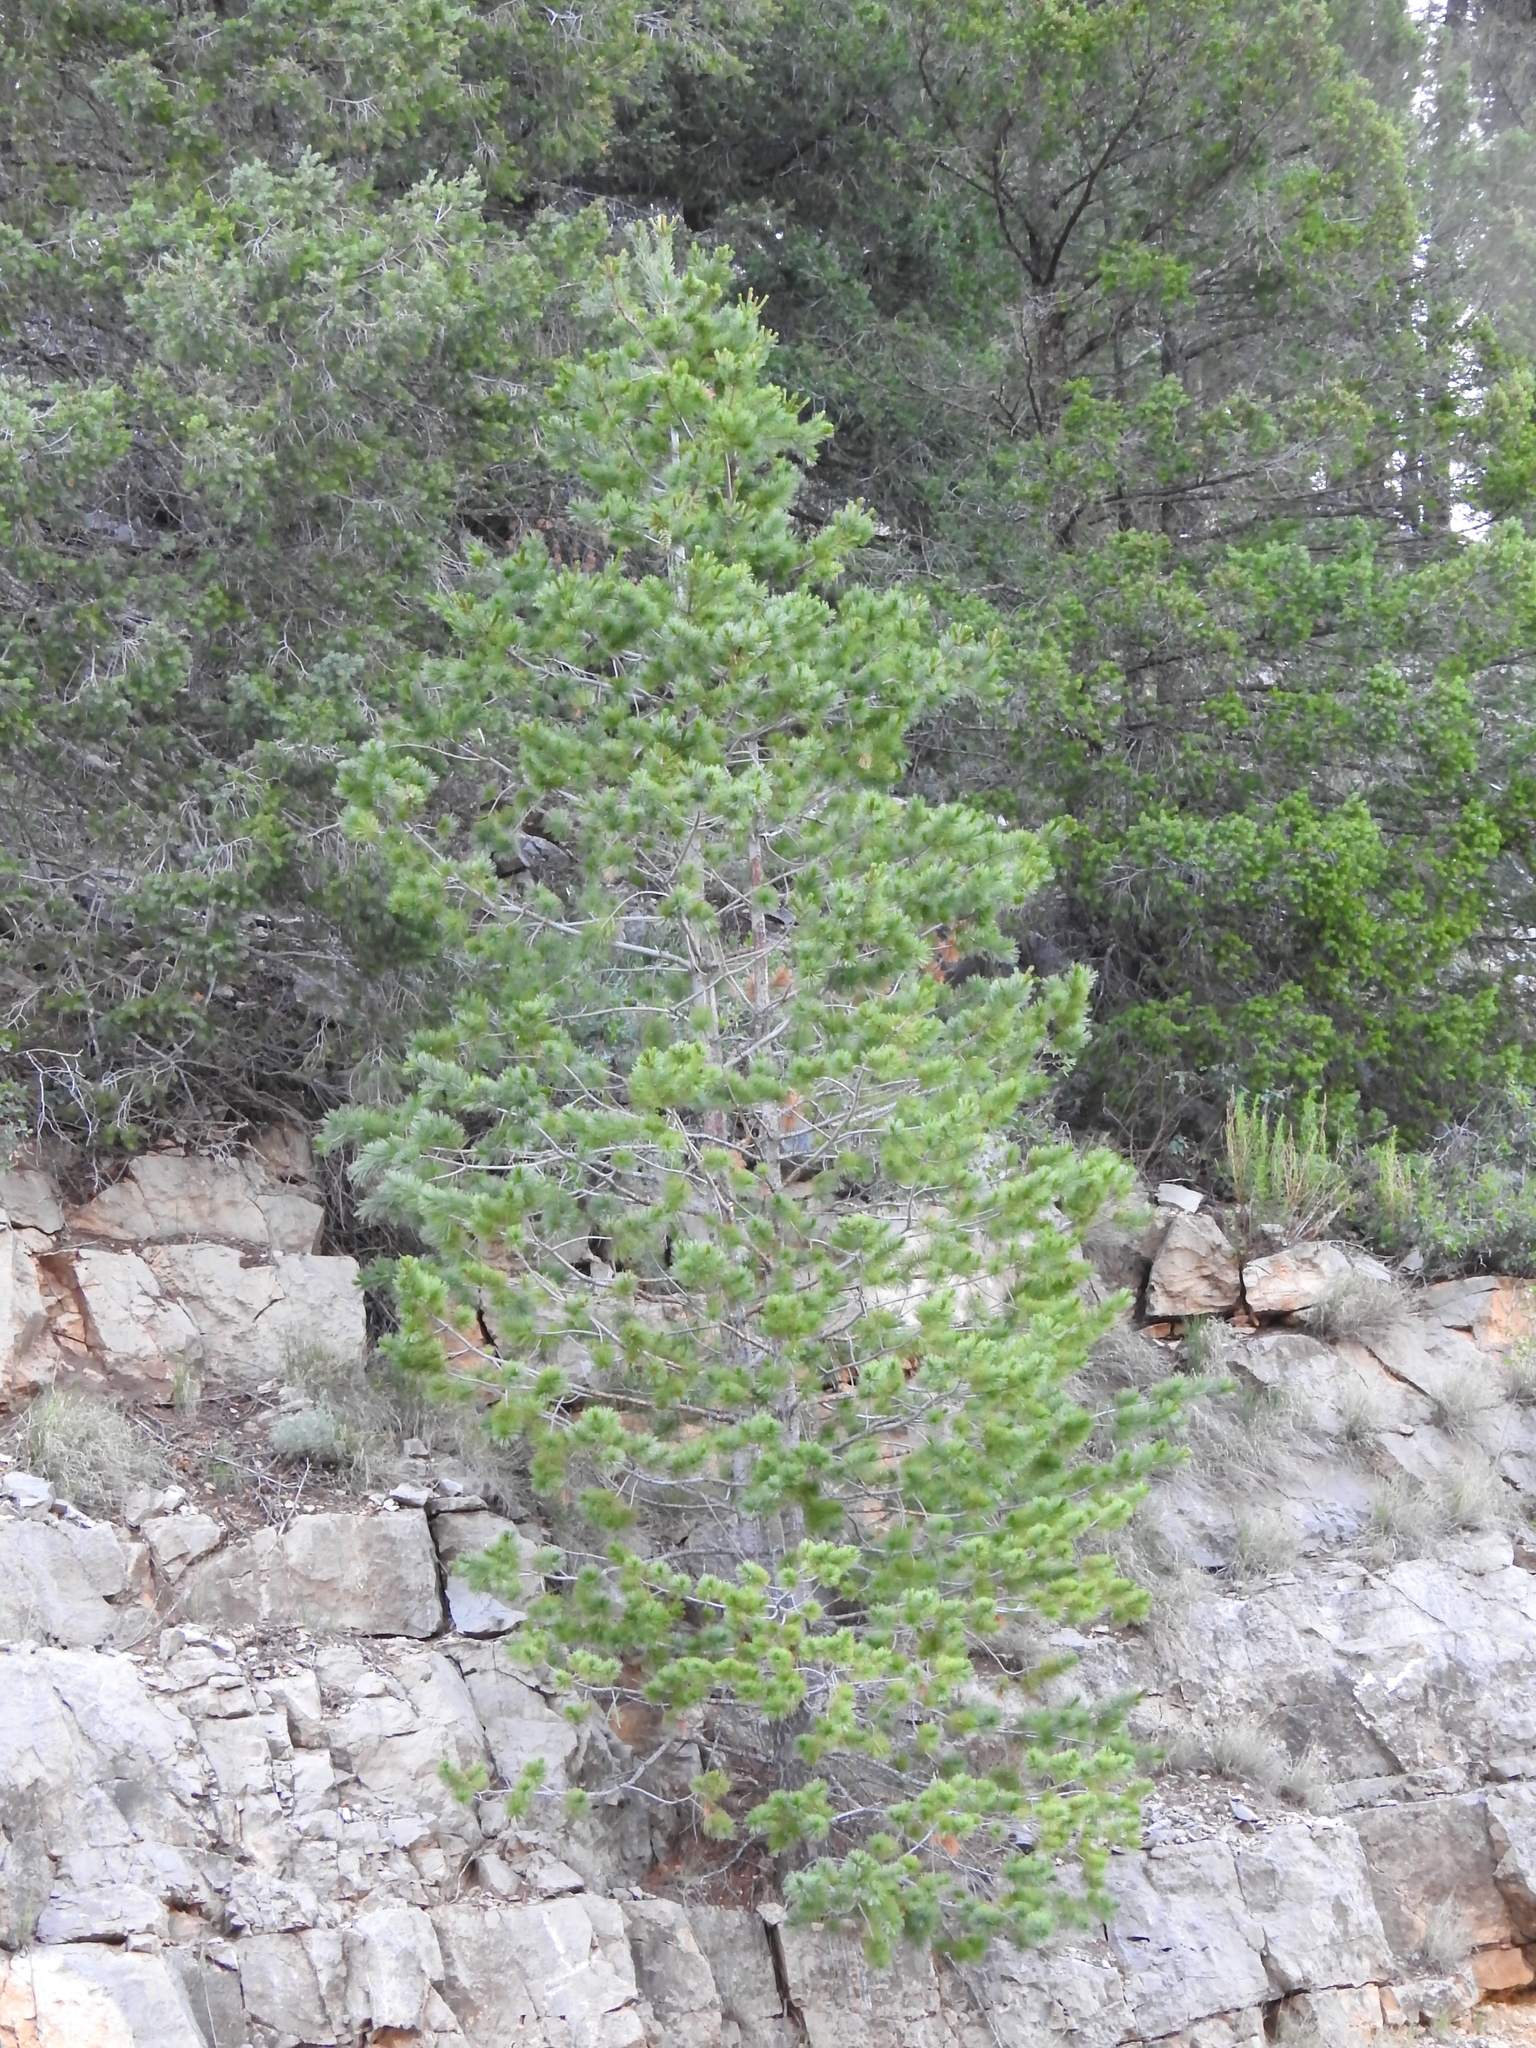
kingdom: Plantae
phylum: Tracheophyta
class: Pinopsida
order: Pinales
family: Pinaceae
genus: Pinus
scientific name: Pinus strobiformis
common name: Southwestern white pine
